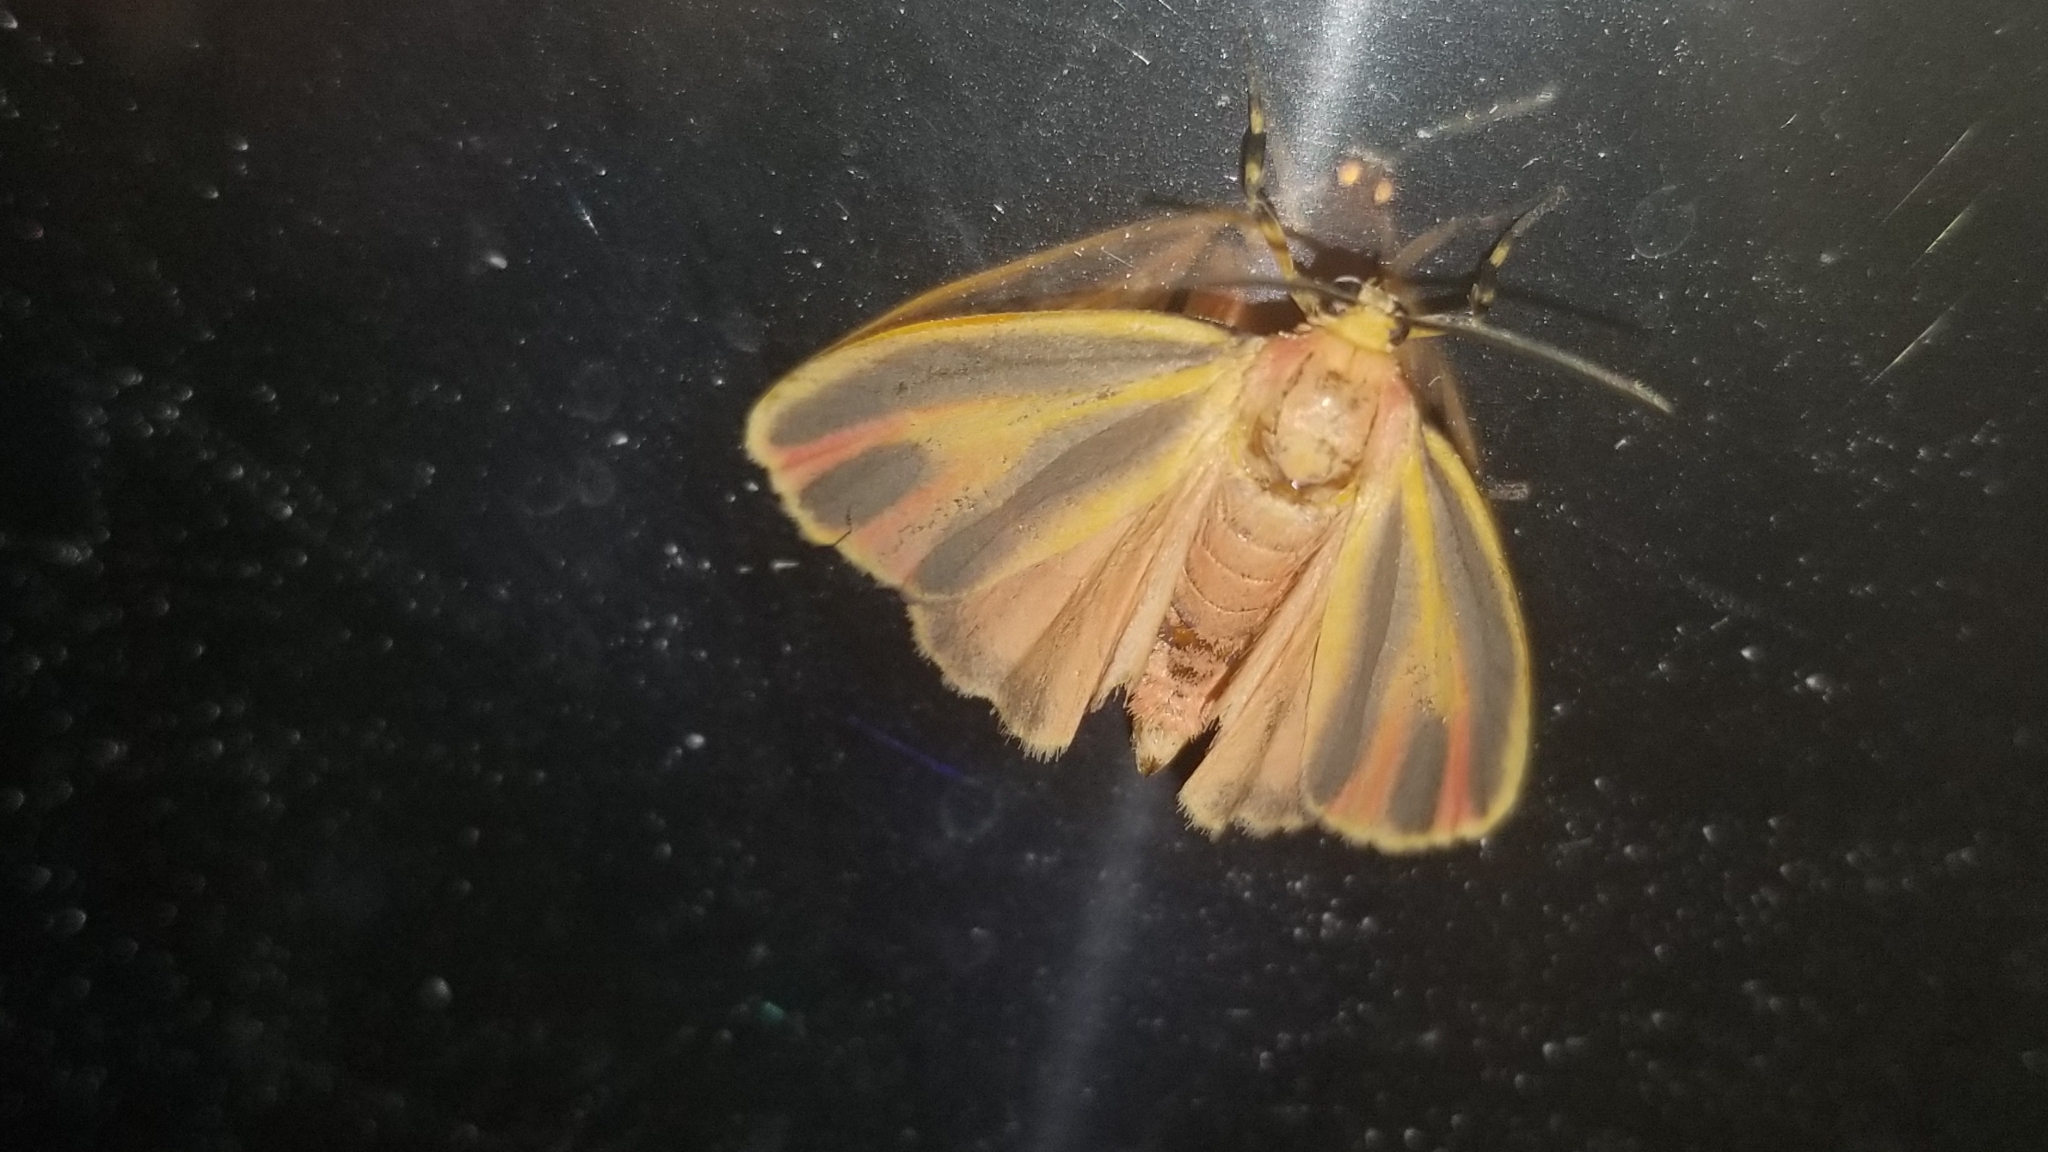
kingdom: Animalia
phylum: Arthropoda
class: Insecta
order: Lepidoptera
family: Erebidae
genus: Hypoprepia
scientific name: Hypoprepia fucosa
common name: Painted lichen moth
